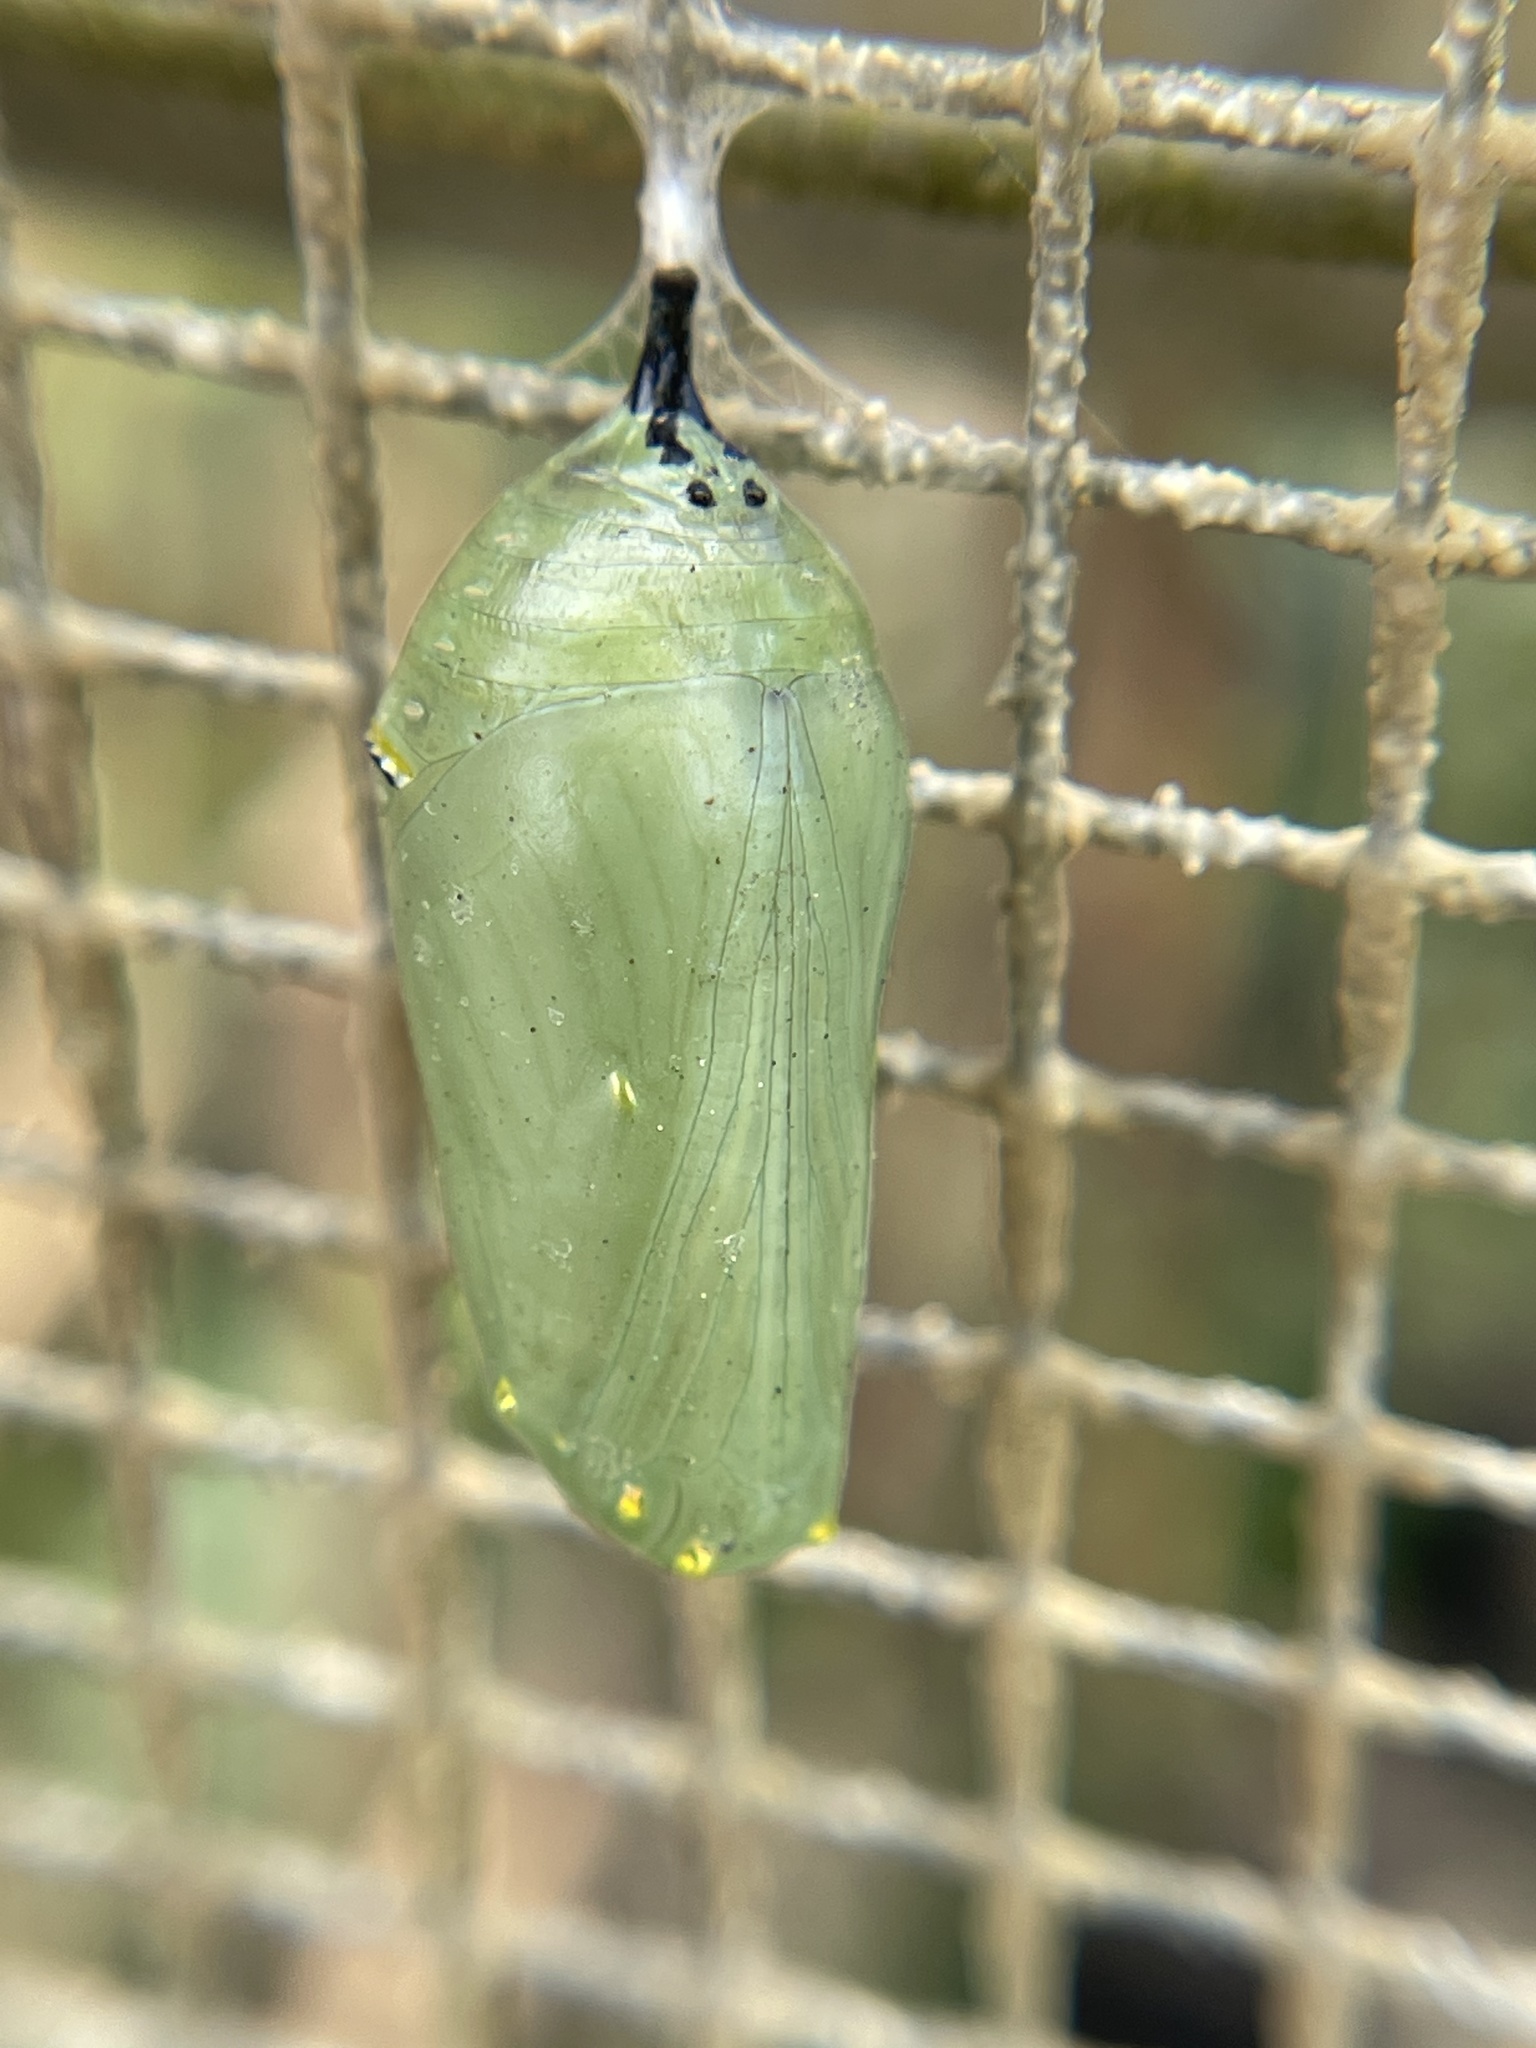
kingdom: Animalia
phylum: Arthropoda
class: Insecta
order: Lepidoptera
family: Nymphalidae
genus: Danaus
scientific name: Danaus plexippus
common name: Monarch
